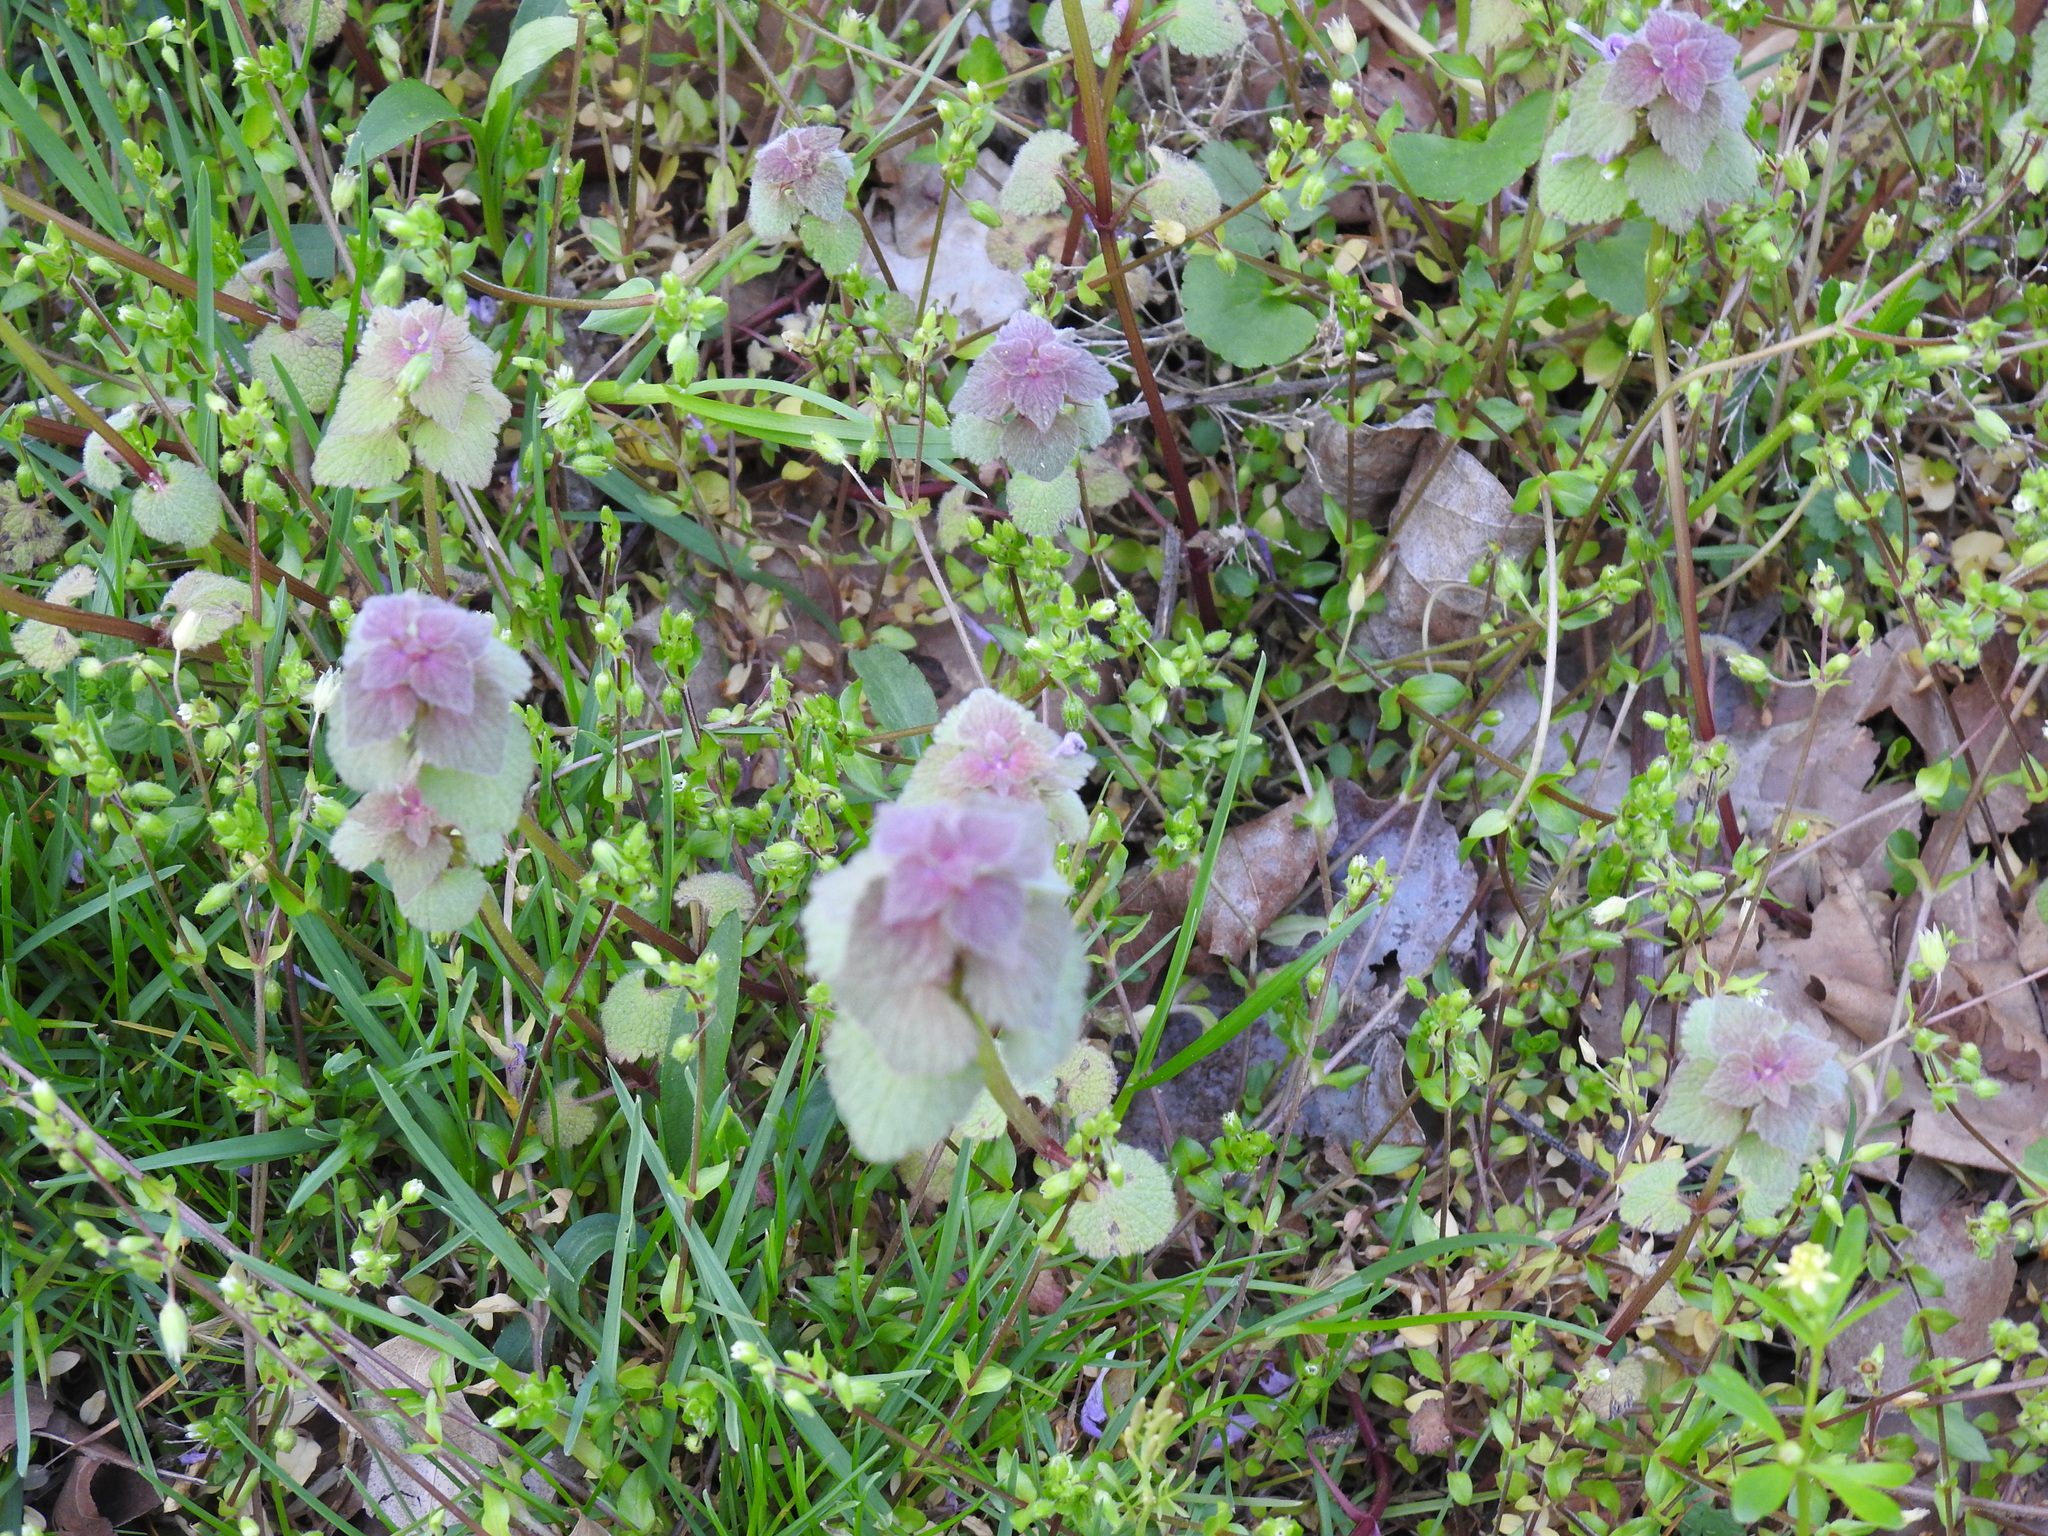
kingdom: Plantae
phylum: Tracheophyta
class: Magnoliopsida
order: Lamiales
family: Lamiaceae
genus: Lamium
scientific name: Lamium purpureum
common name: Red dead-nettle
